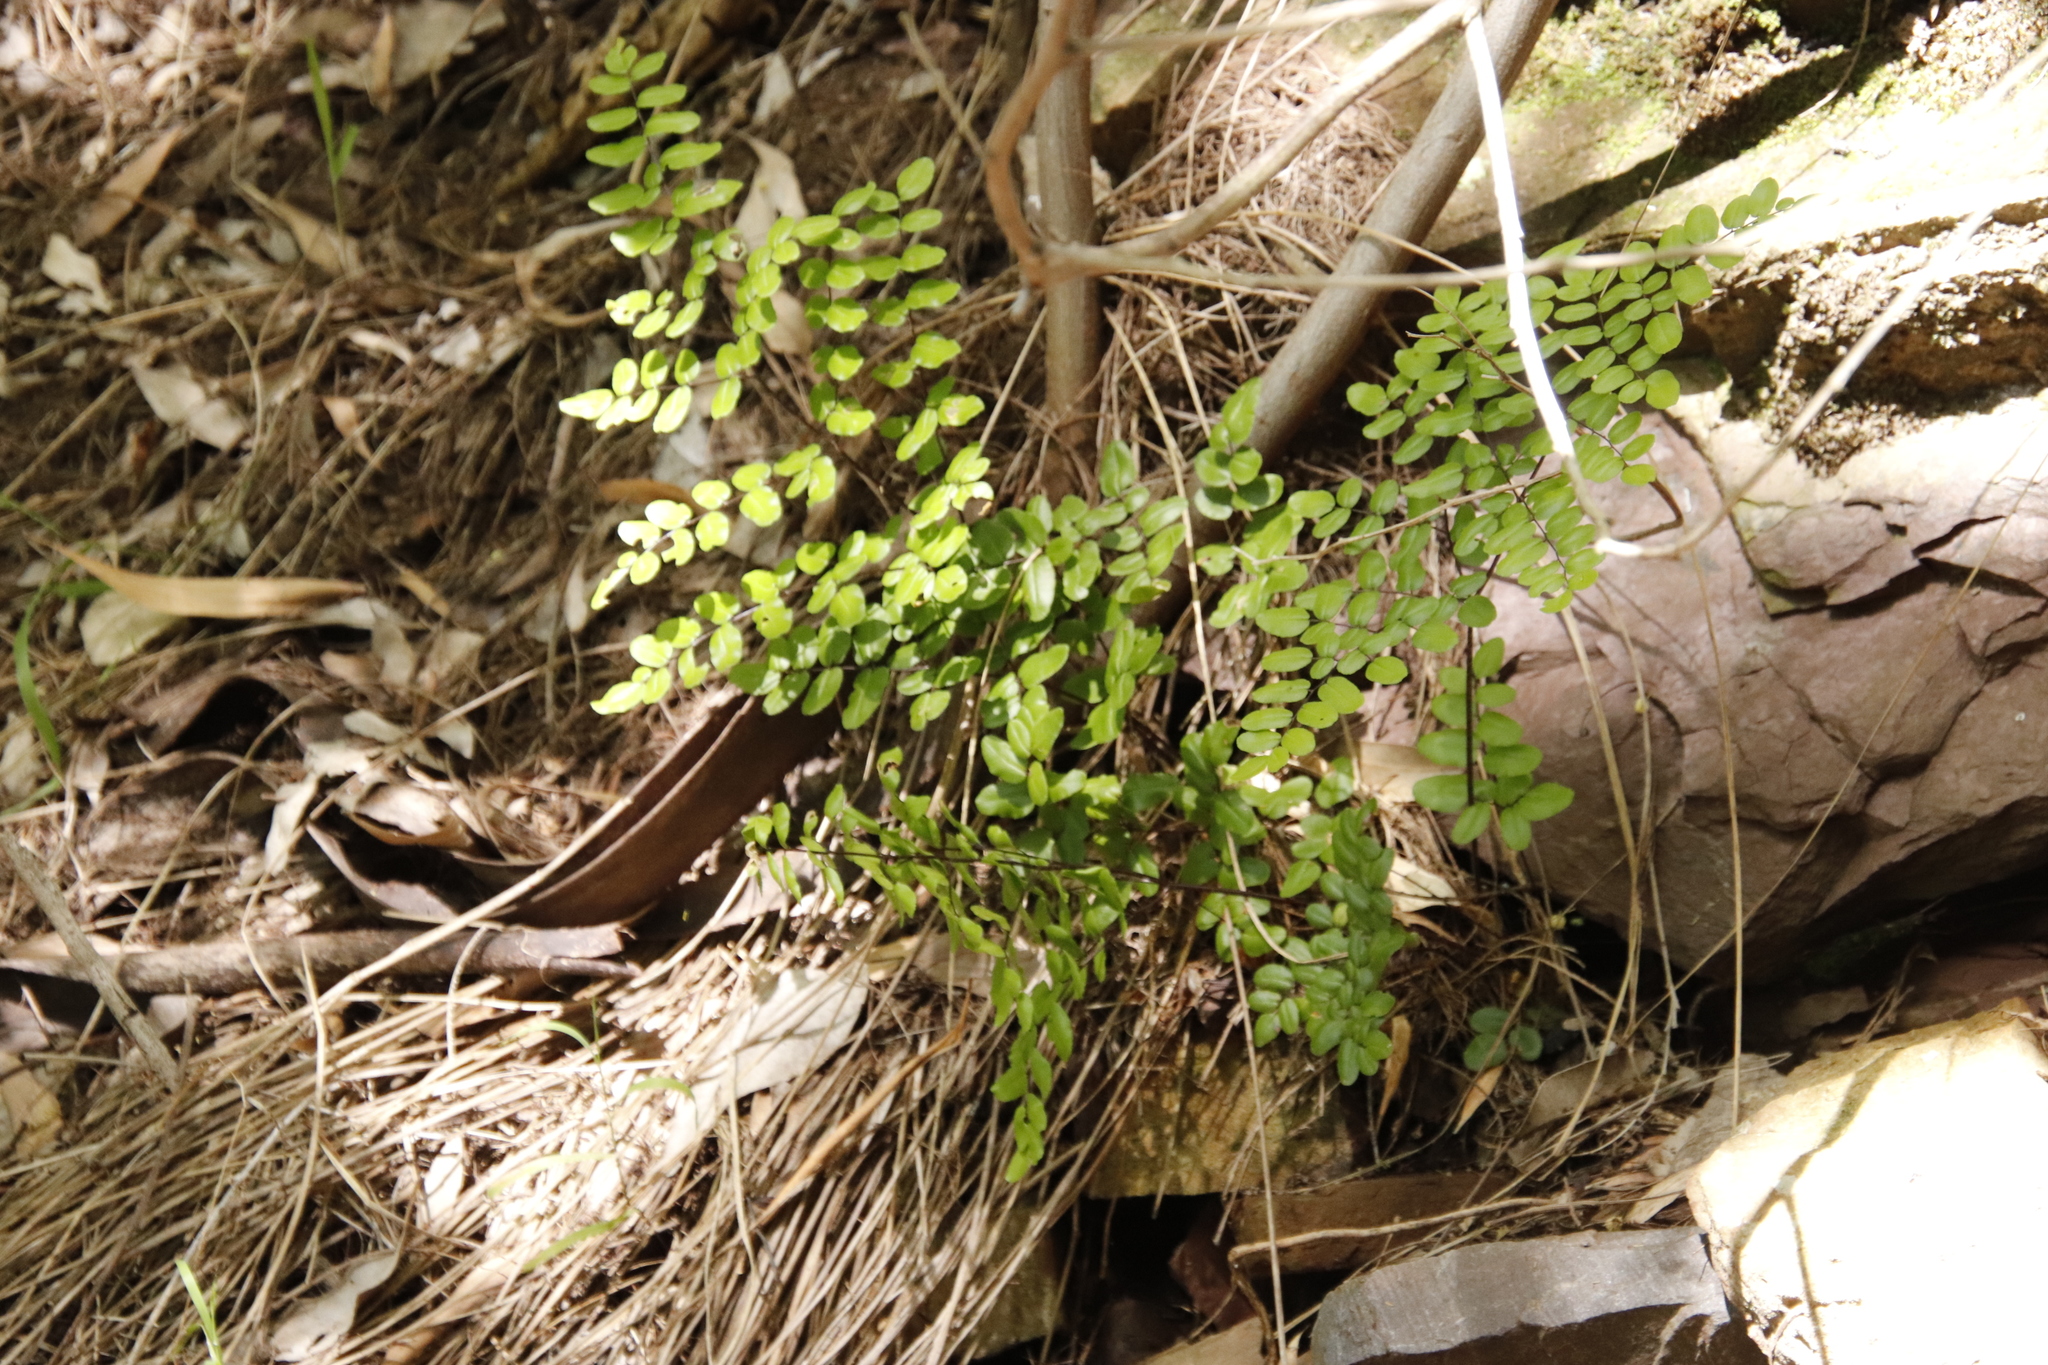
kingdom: Plantae
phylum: Tracheophyta
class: Polypodiopsida
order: Polypodiales
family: Pteridaceae
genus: Pellaea
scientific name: Pellaea pteroides
